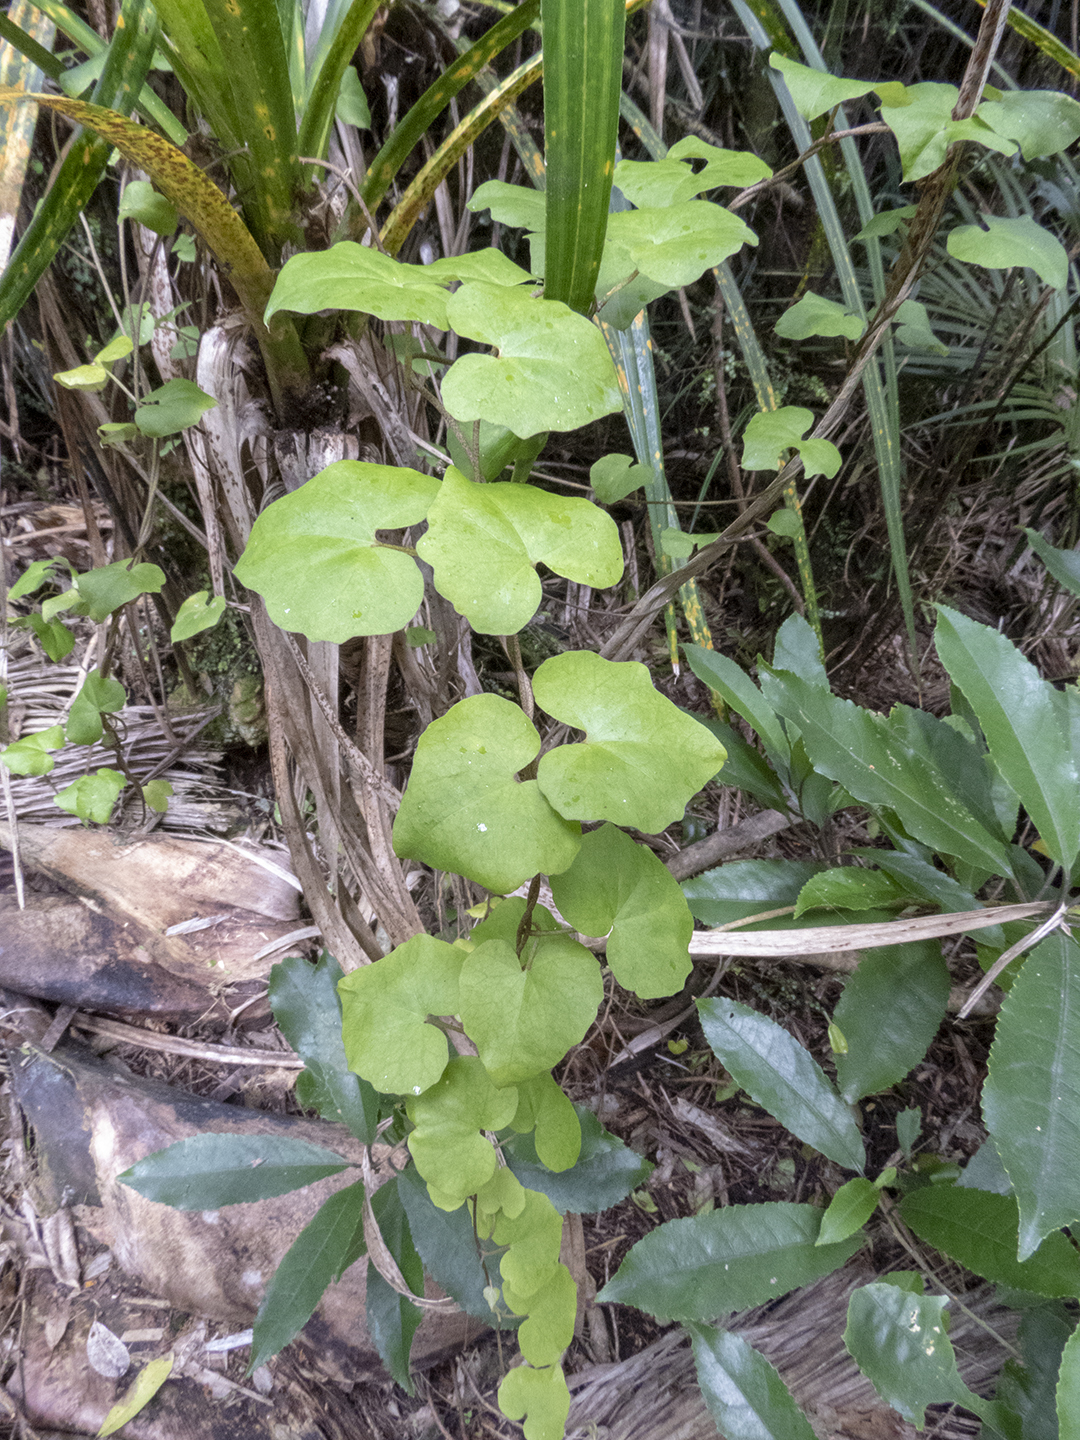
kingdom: Plantae
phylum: Tracheophyta
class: Magnoliopsida
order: Solanales
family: Convolvulaceae
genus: Calystegia
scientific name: Calystegia tuguriorum
